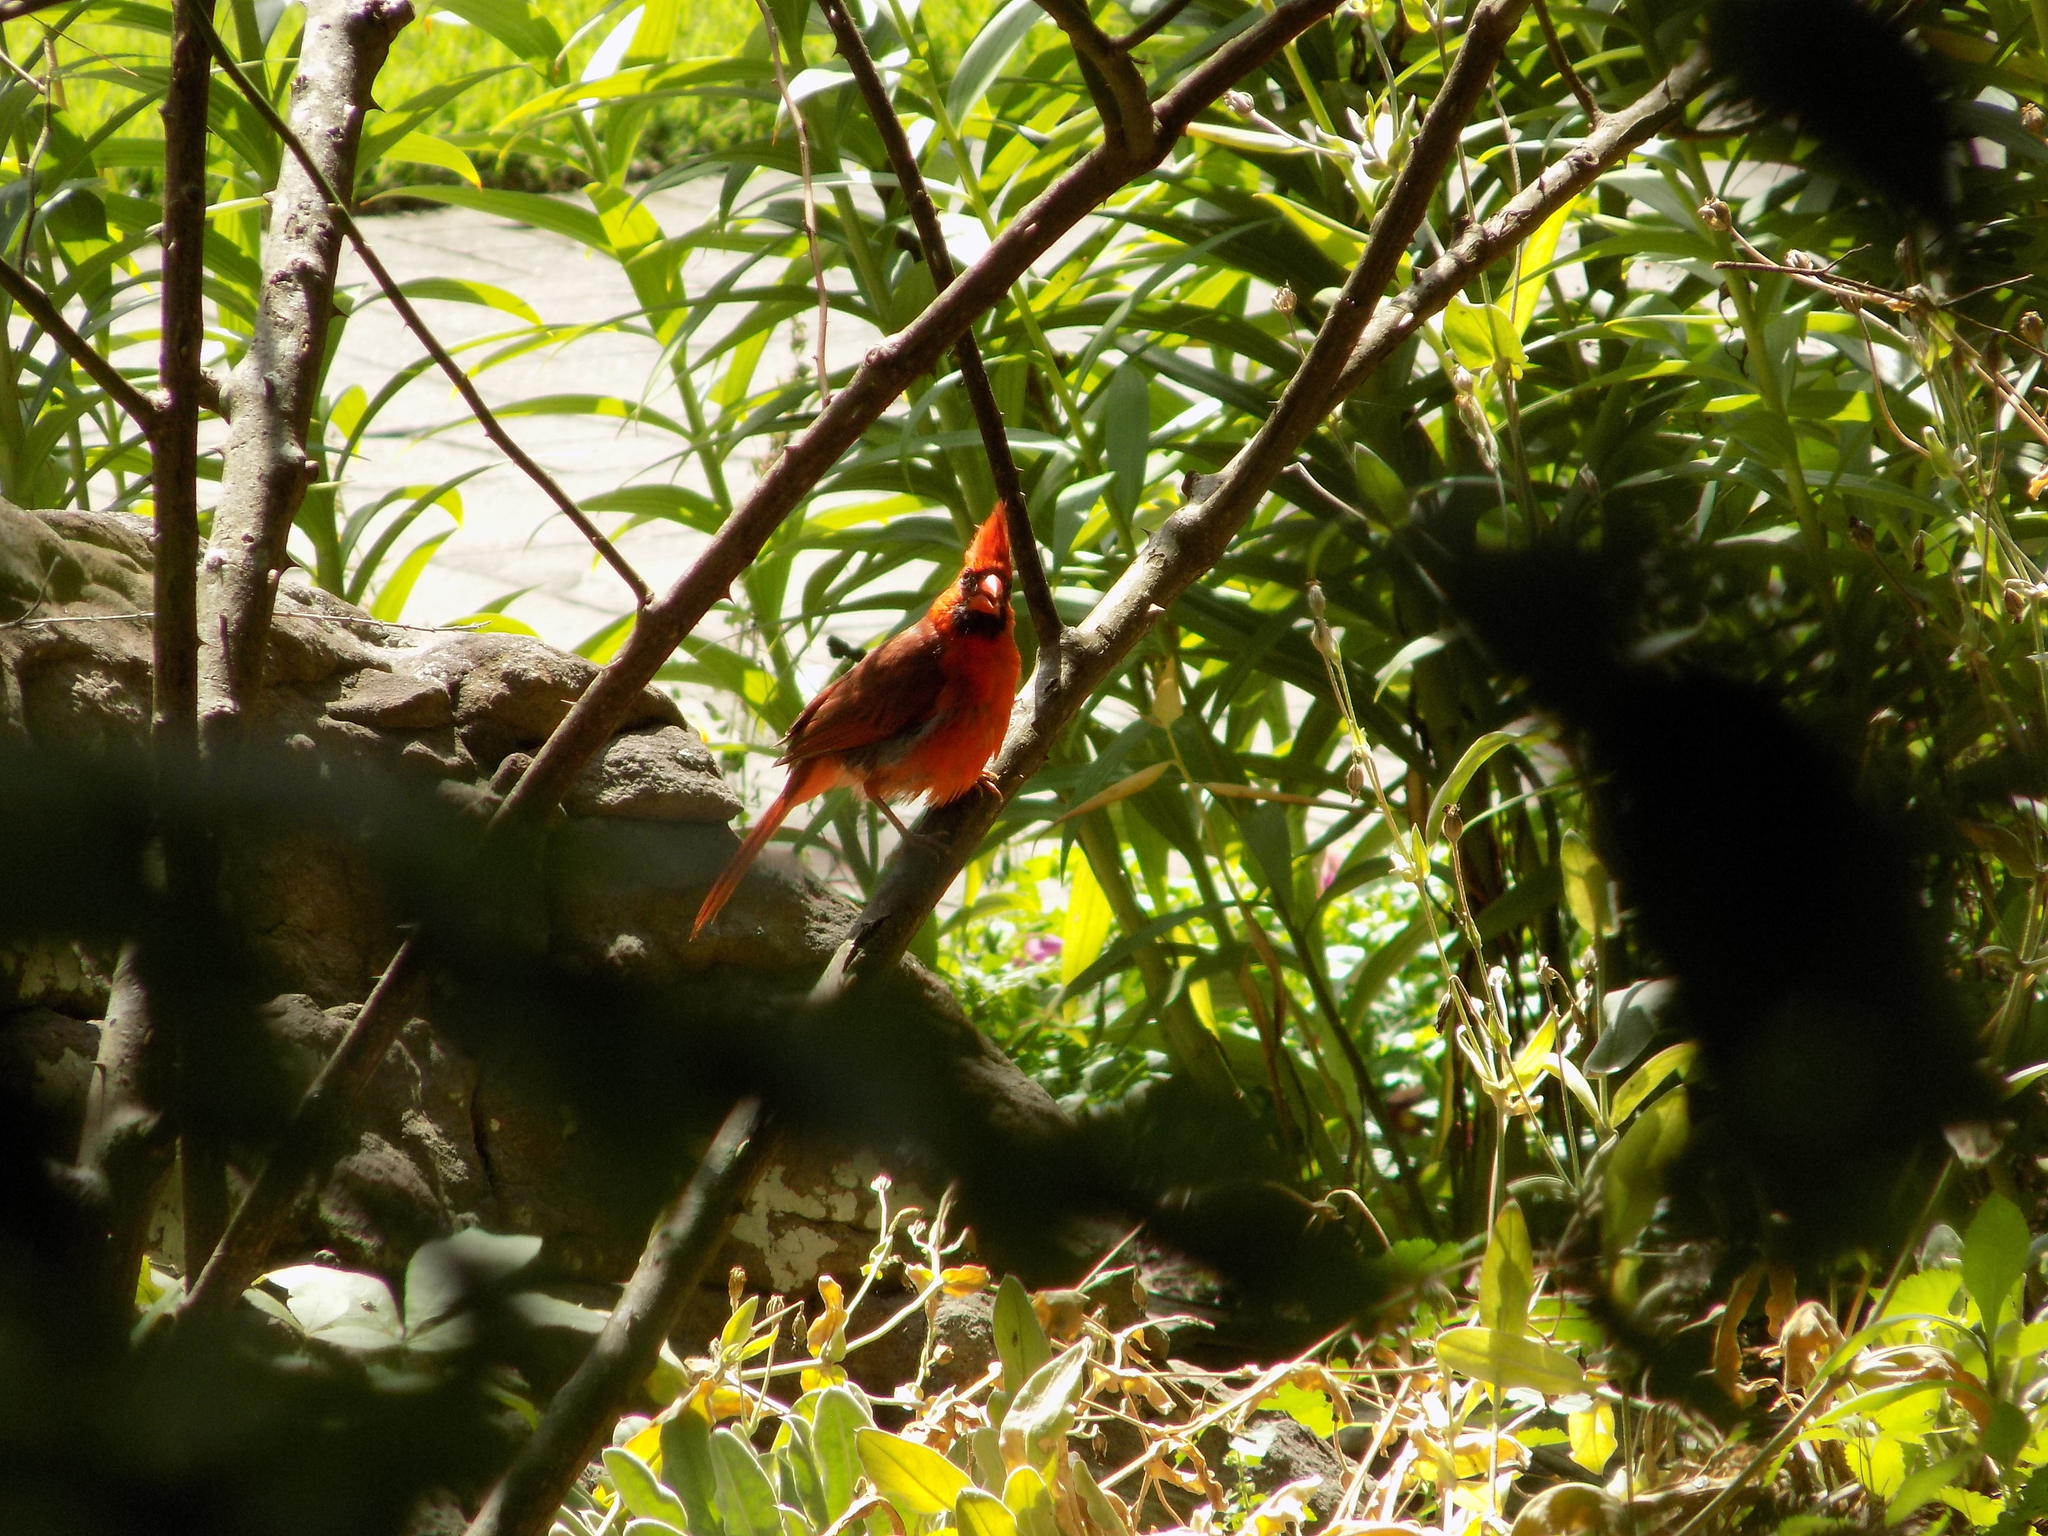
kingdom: Animalia
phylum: Chordata
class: Aves
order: Passeriformes
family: Cardinalidae
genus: Cardinalis
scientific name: Cardinalis cardinalis
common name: Northern cardinal
